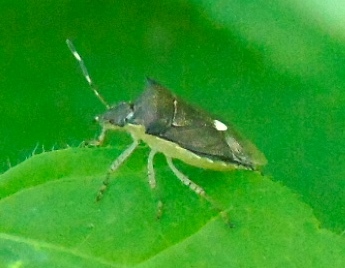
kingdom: Animalia
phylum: Arthropoda
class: Insecta
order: Hemiptera
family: Pentatomidae
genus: Mormidea
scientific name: Mormidea lunara
